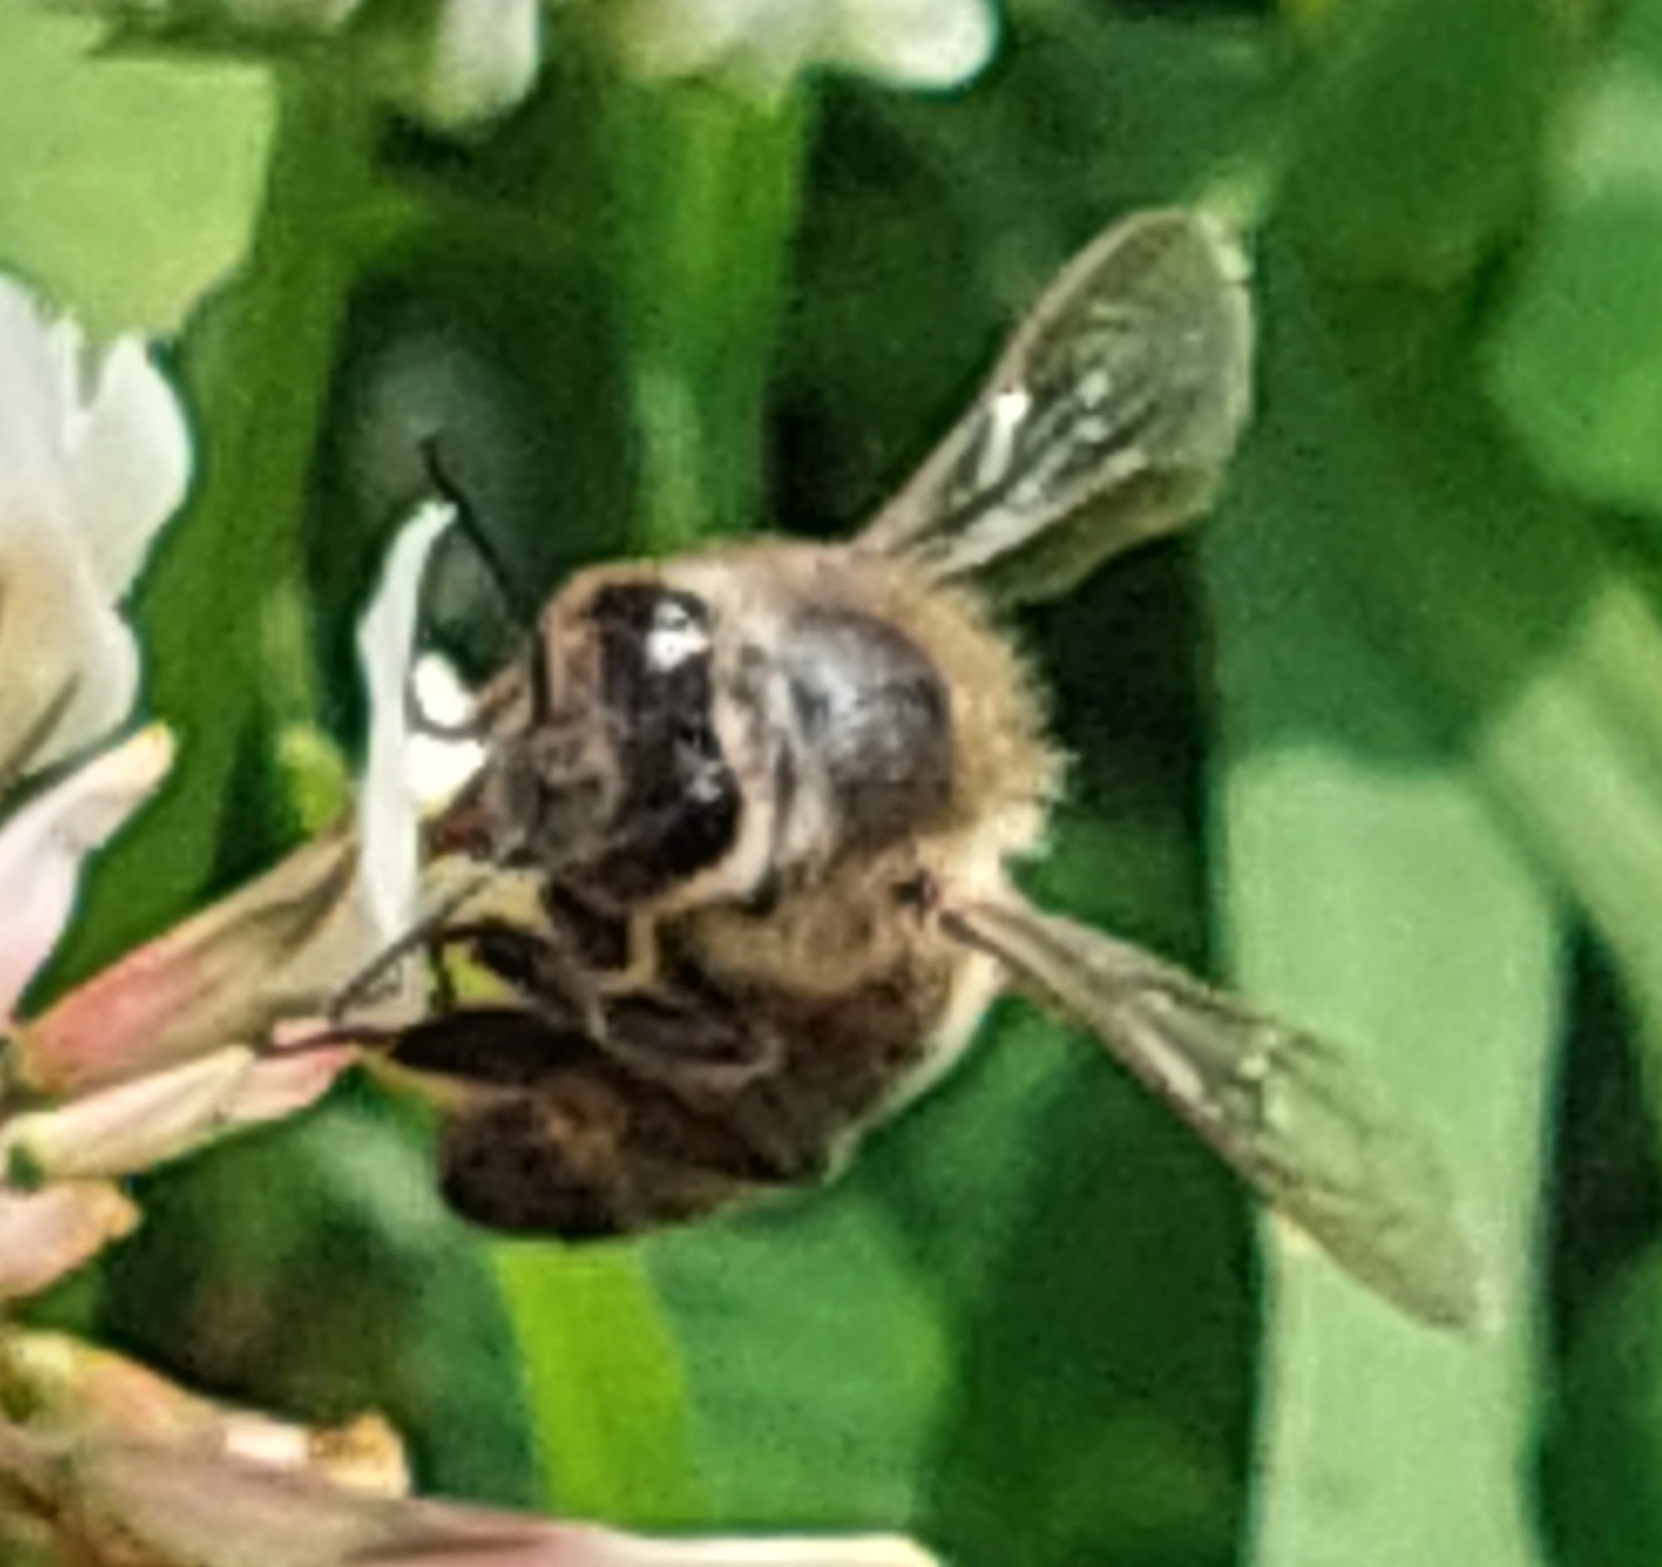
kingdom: Animalia
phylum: Arthropoda
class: Insecta
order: Hymenoptera
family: Apidae
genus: Apis
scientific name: Apis mellifera
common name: Honey bee
